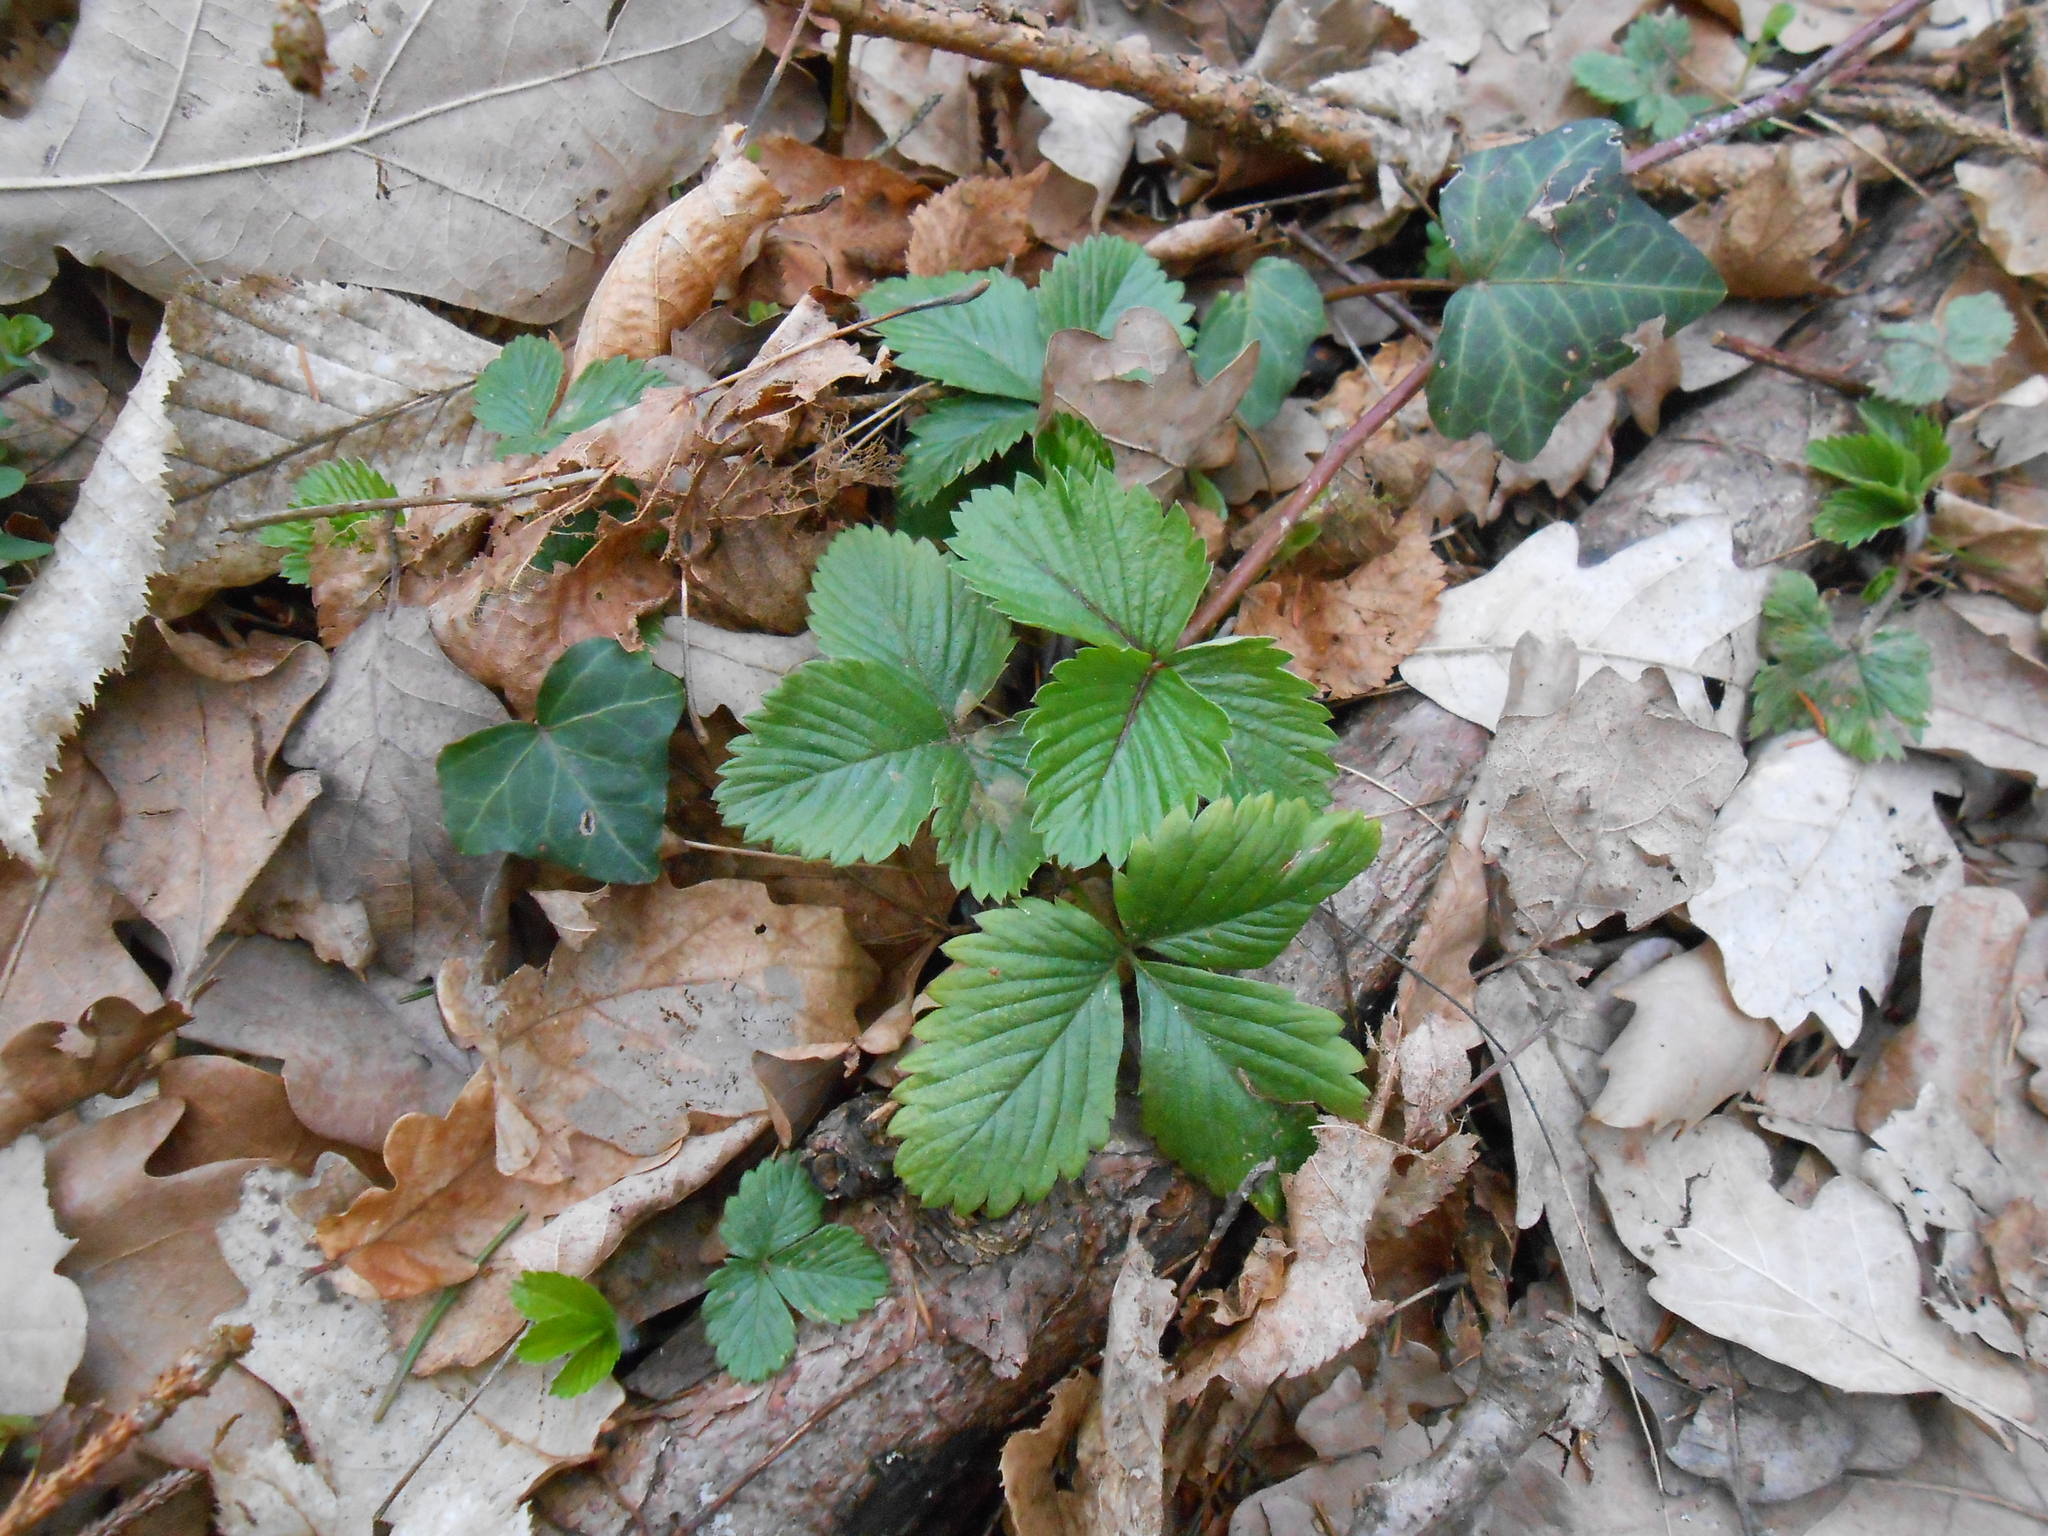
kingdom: Plantae
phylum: Tracheophyta
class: Magnoliopsida
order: Rosales
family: Rosaceae
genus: Fragaria
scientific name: Fragaria vesca
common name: Wild strawberry
